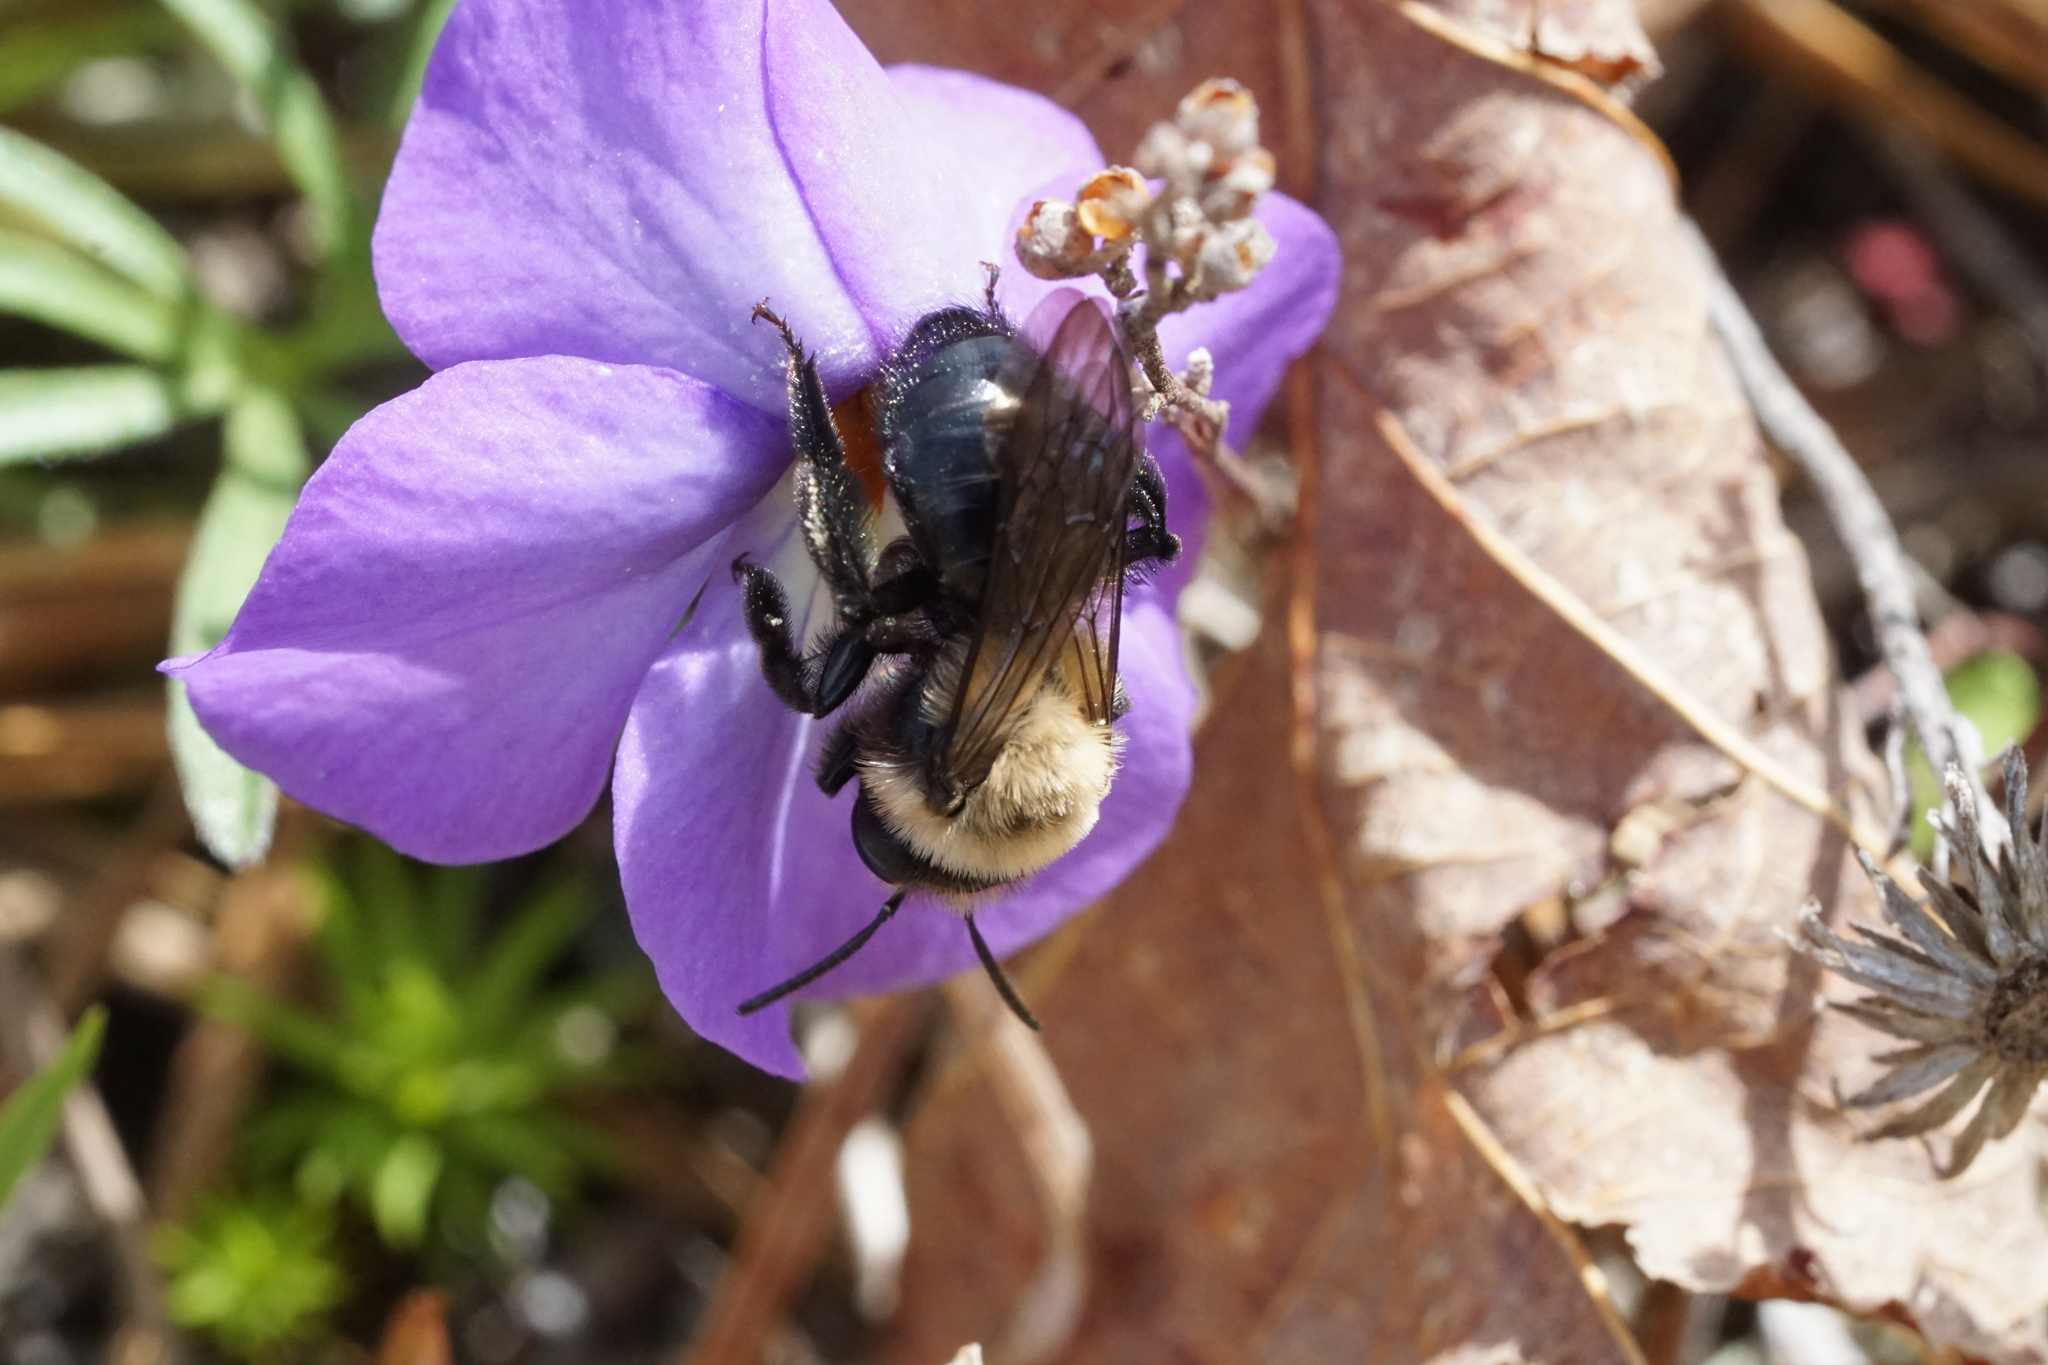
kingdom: Animalia
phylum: Arthropoda
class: Insecta
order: Hymenoptera
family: Andrenidae
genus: Andrena
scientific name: Andrena carlini
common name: Carlin's mining bee
